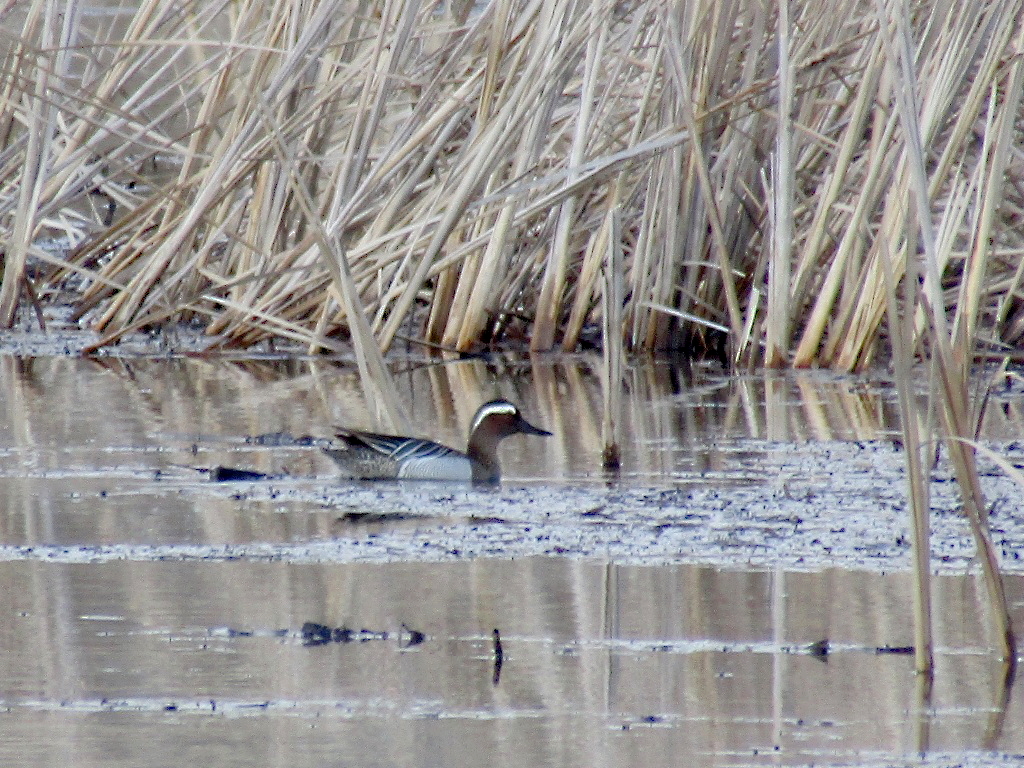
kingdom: Animalia
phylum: Chordata
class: Aves
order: Anseriformes
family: Anatidae
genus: Spatula
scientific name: Spatula querquedula
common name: Garganey
